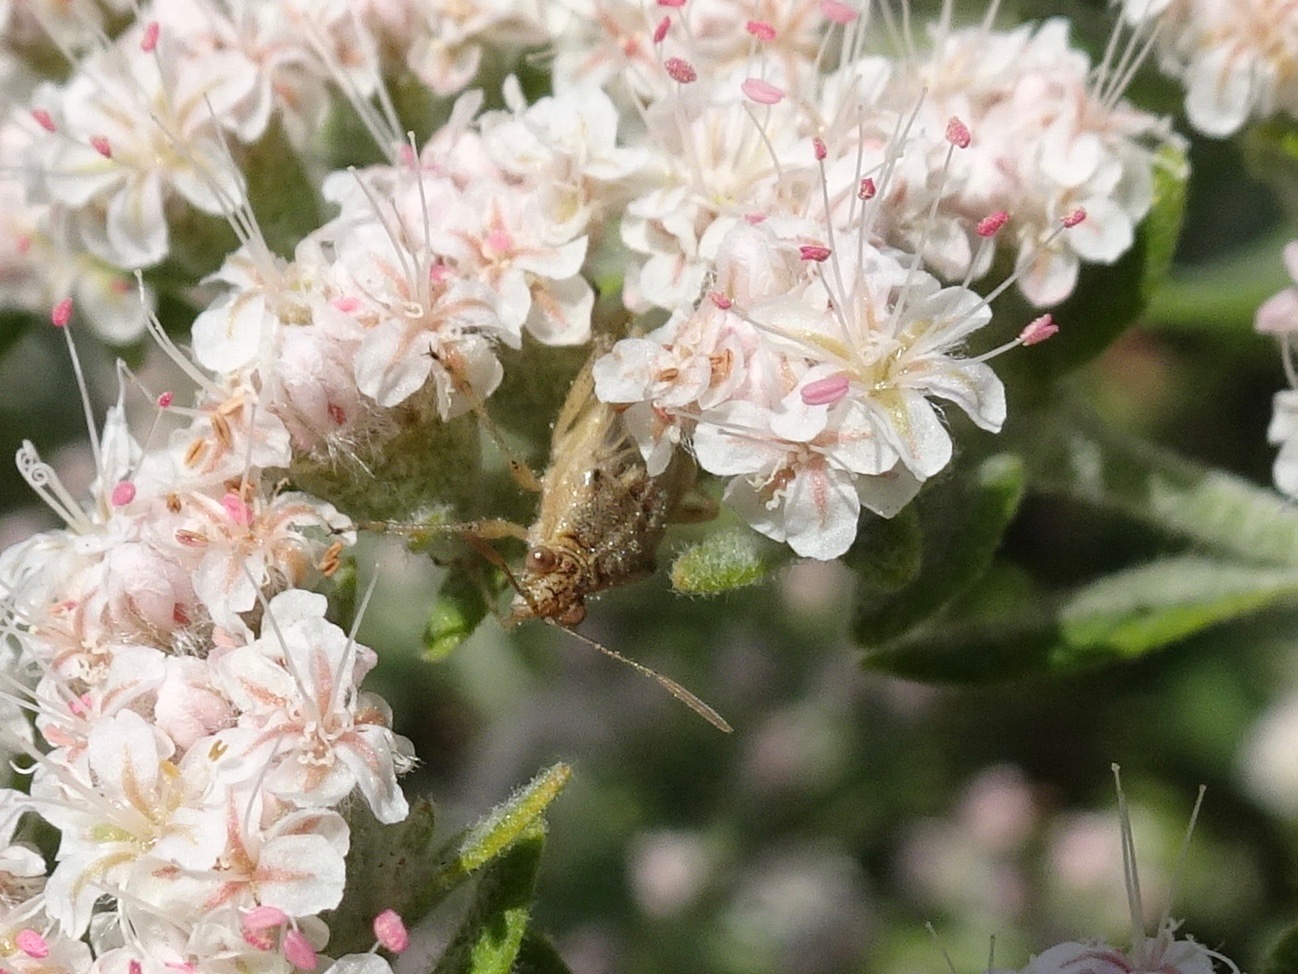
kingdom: Animalia
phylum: Arthropoda
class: Insecta
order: Hemiptera
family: Rhopalidae
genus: Liorhyssus
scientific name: Liorhyssus hyalinus
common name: Scentless plant bug
